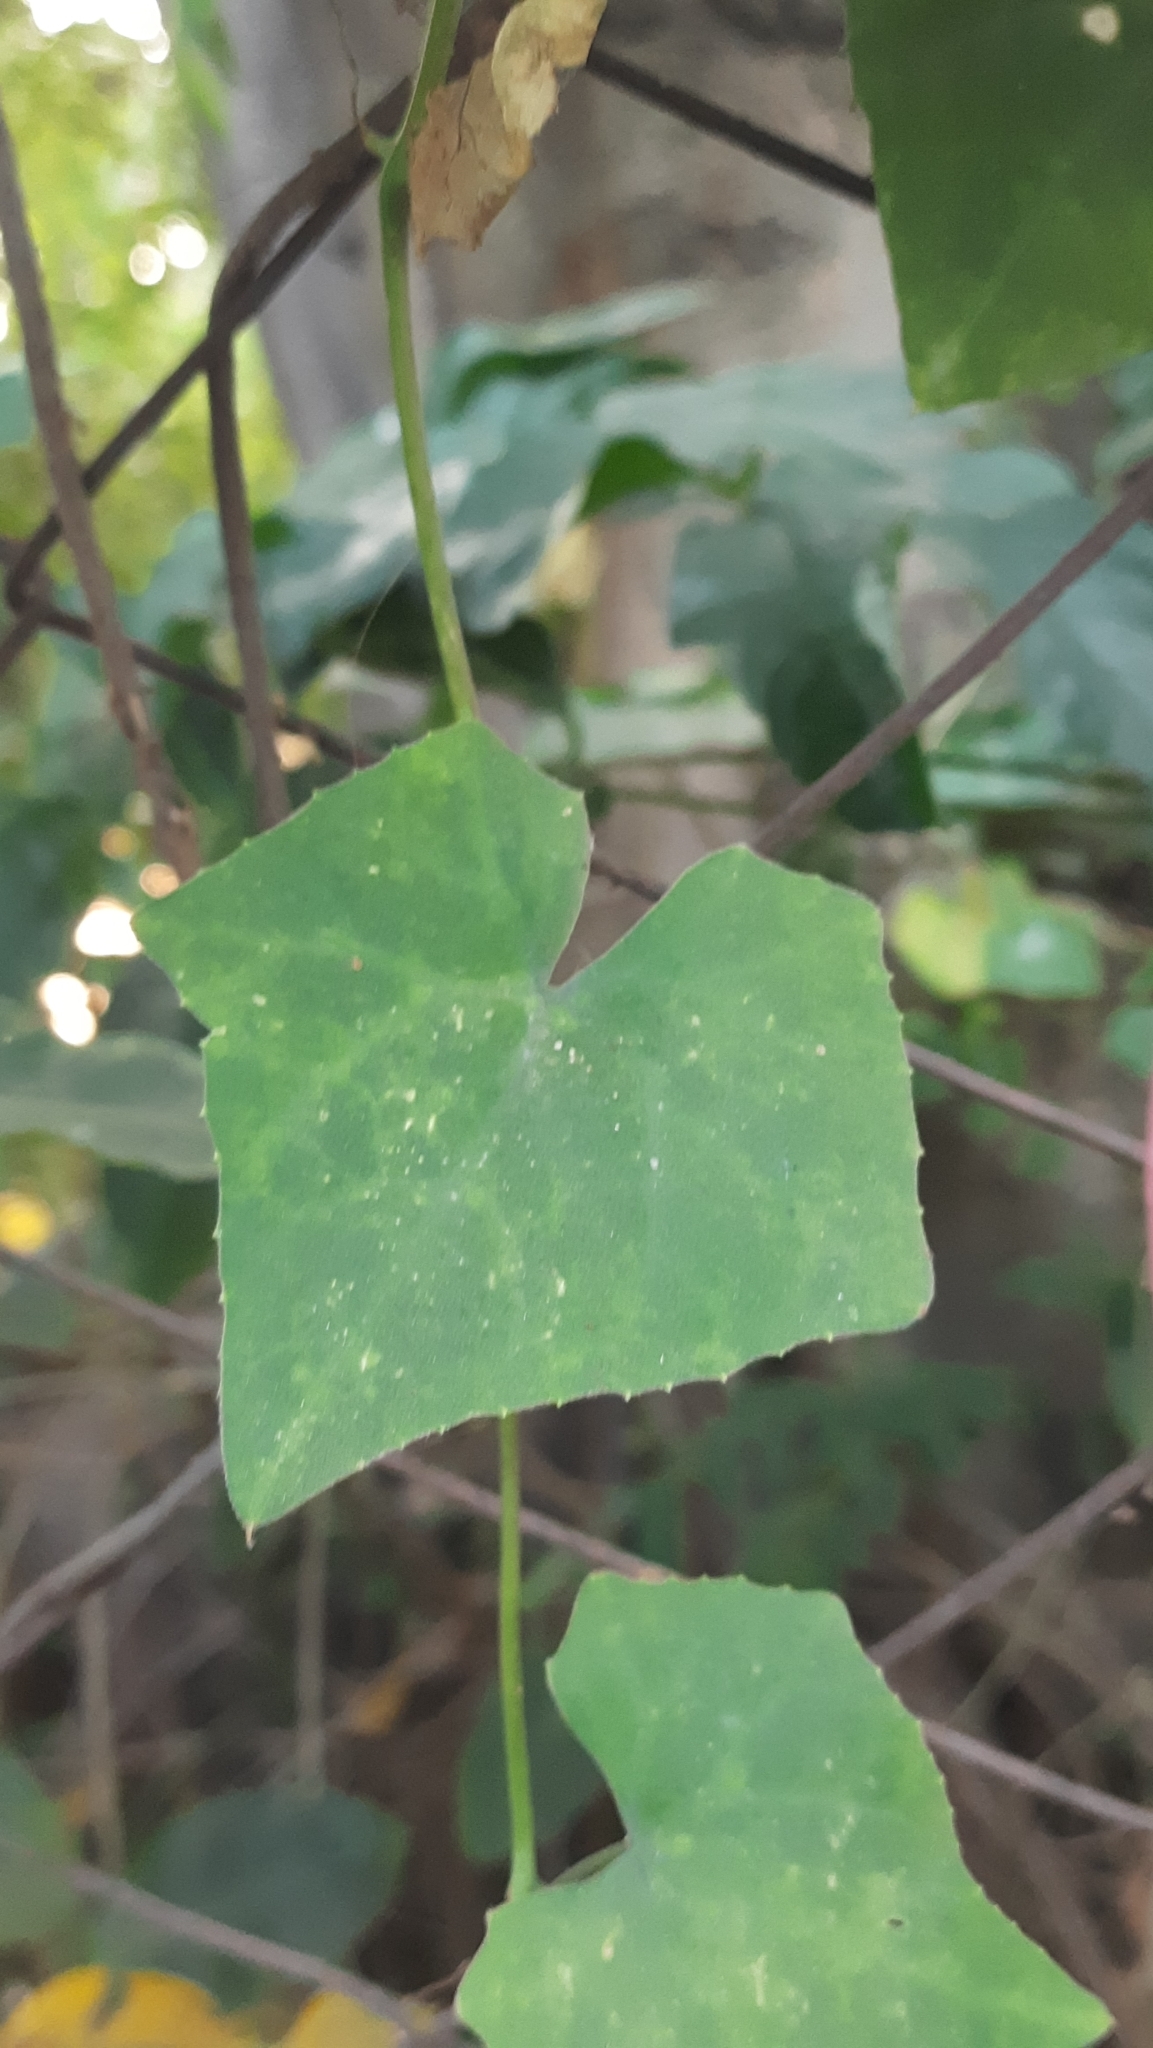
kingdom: Plantae
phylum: Tracheophyta
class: Magnoliopsida
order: Cucurbitales
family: Cucurbitaceae
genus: Coccinia
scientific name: Coccinia grandis
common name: Ivy gourd
